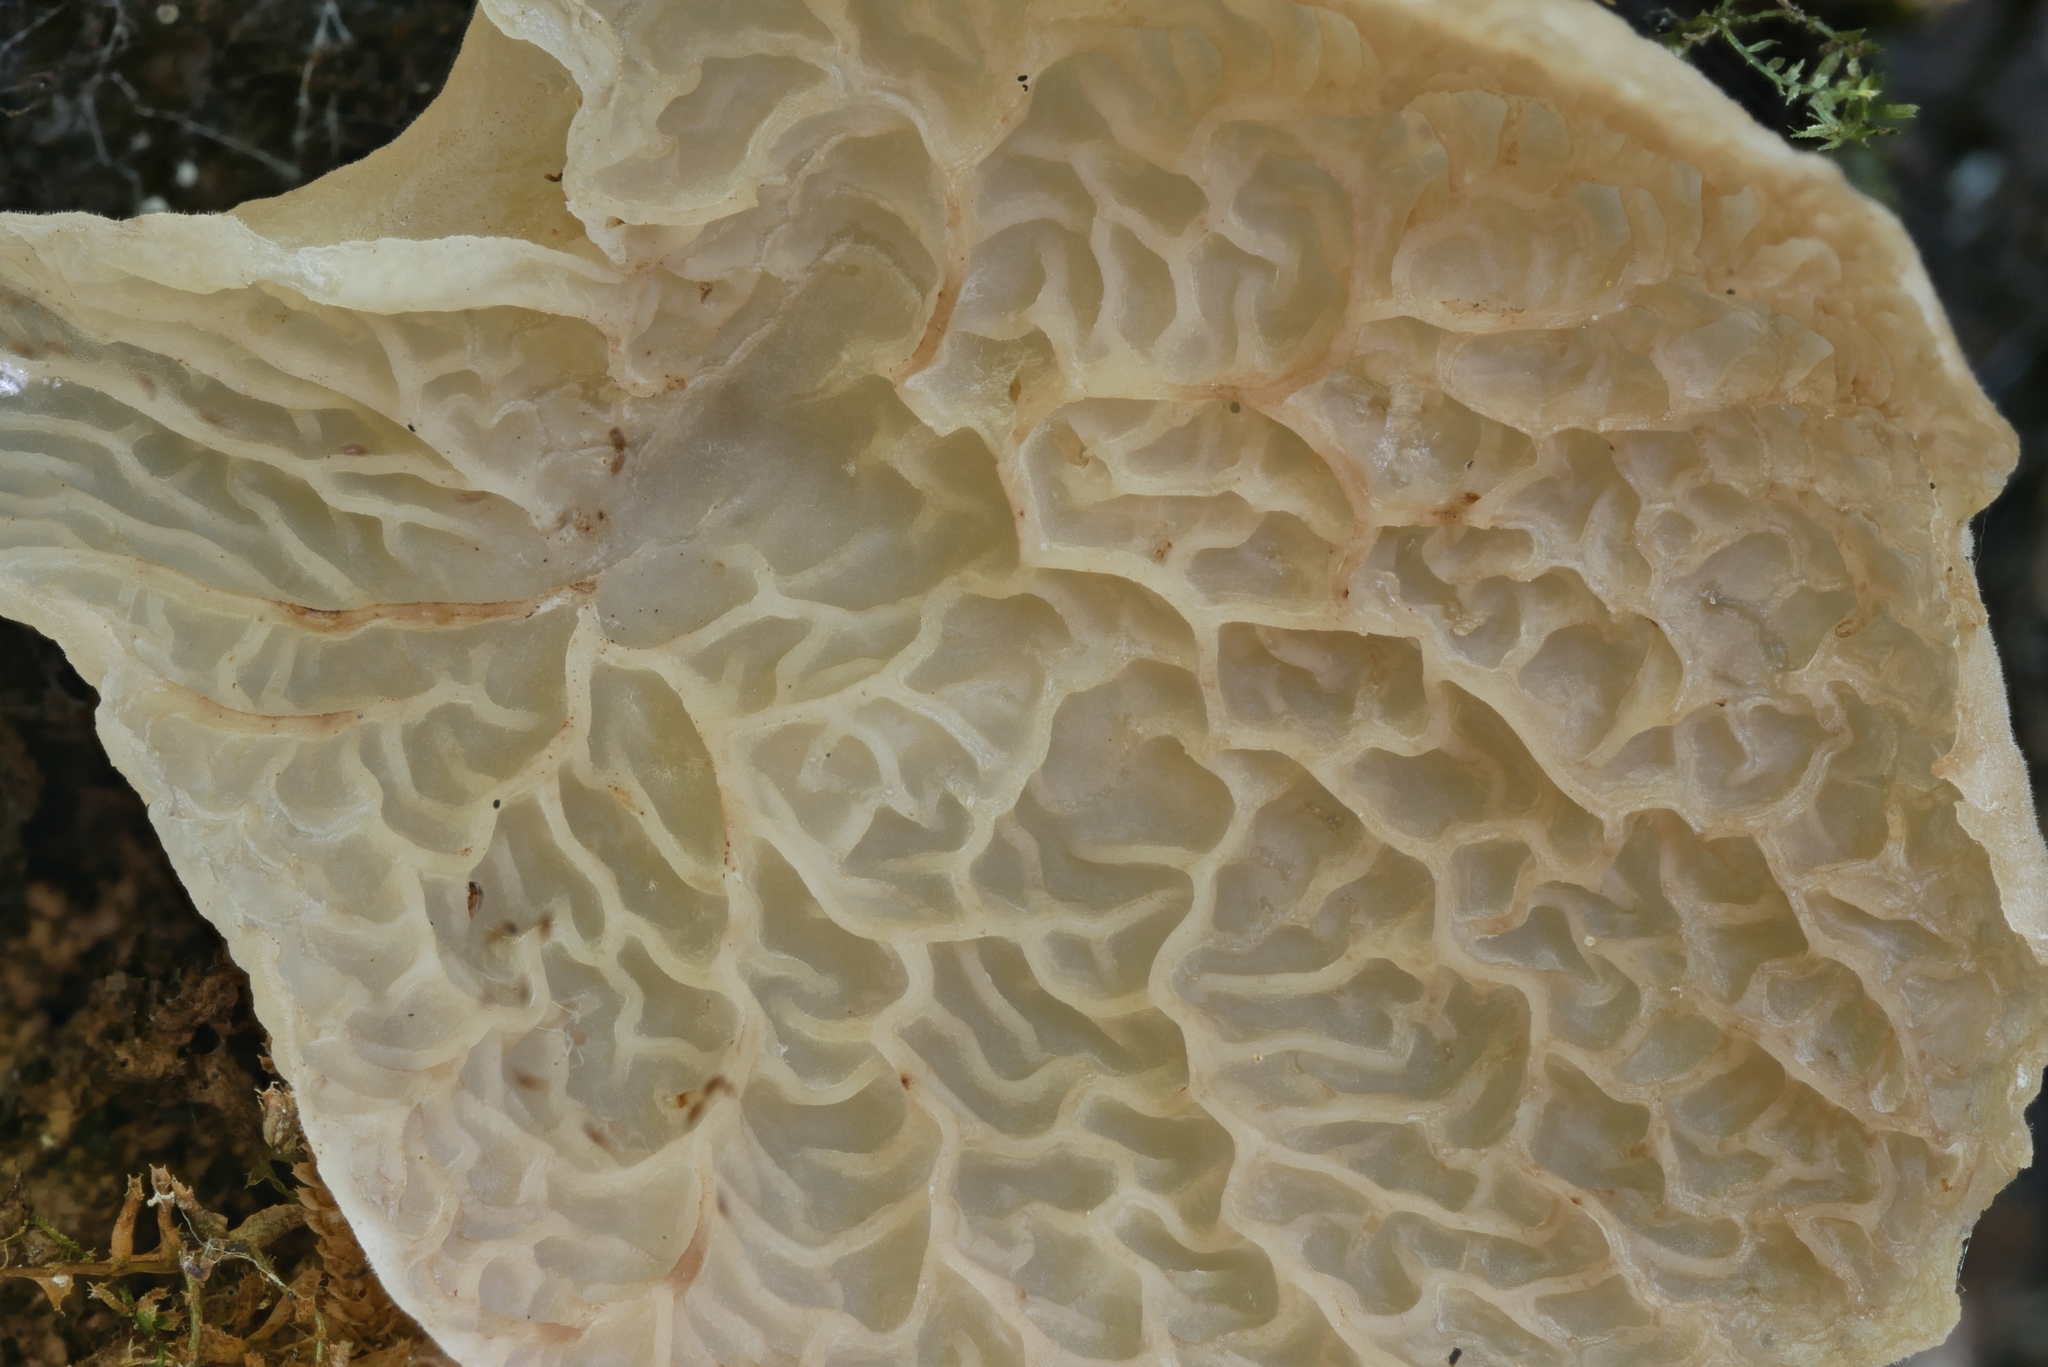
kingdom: Fungi
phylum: Basidiomycota
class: Agaricomycetes
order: Auriculariales
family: Auriculariaceae
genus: Auricularia
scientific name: Auricularia delicata
